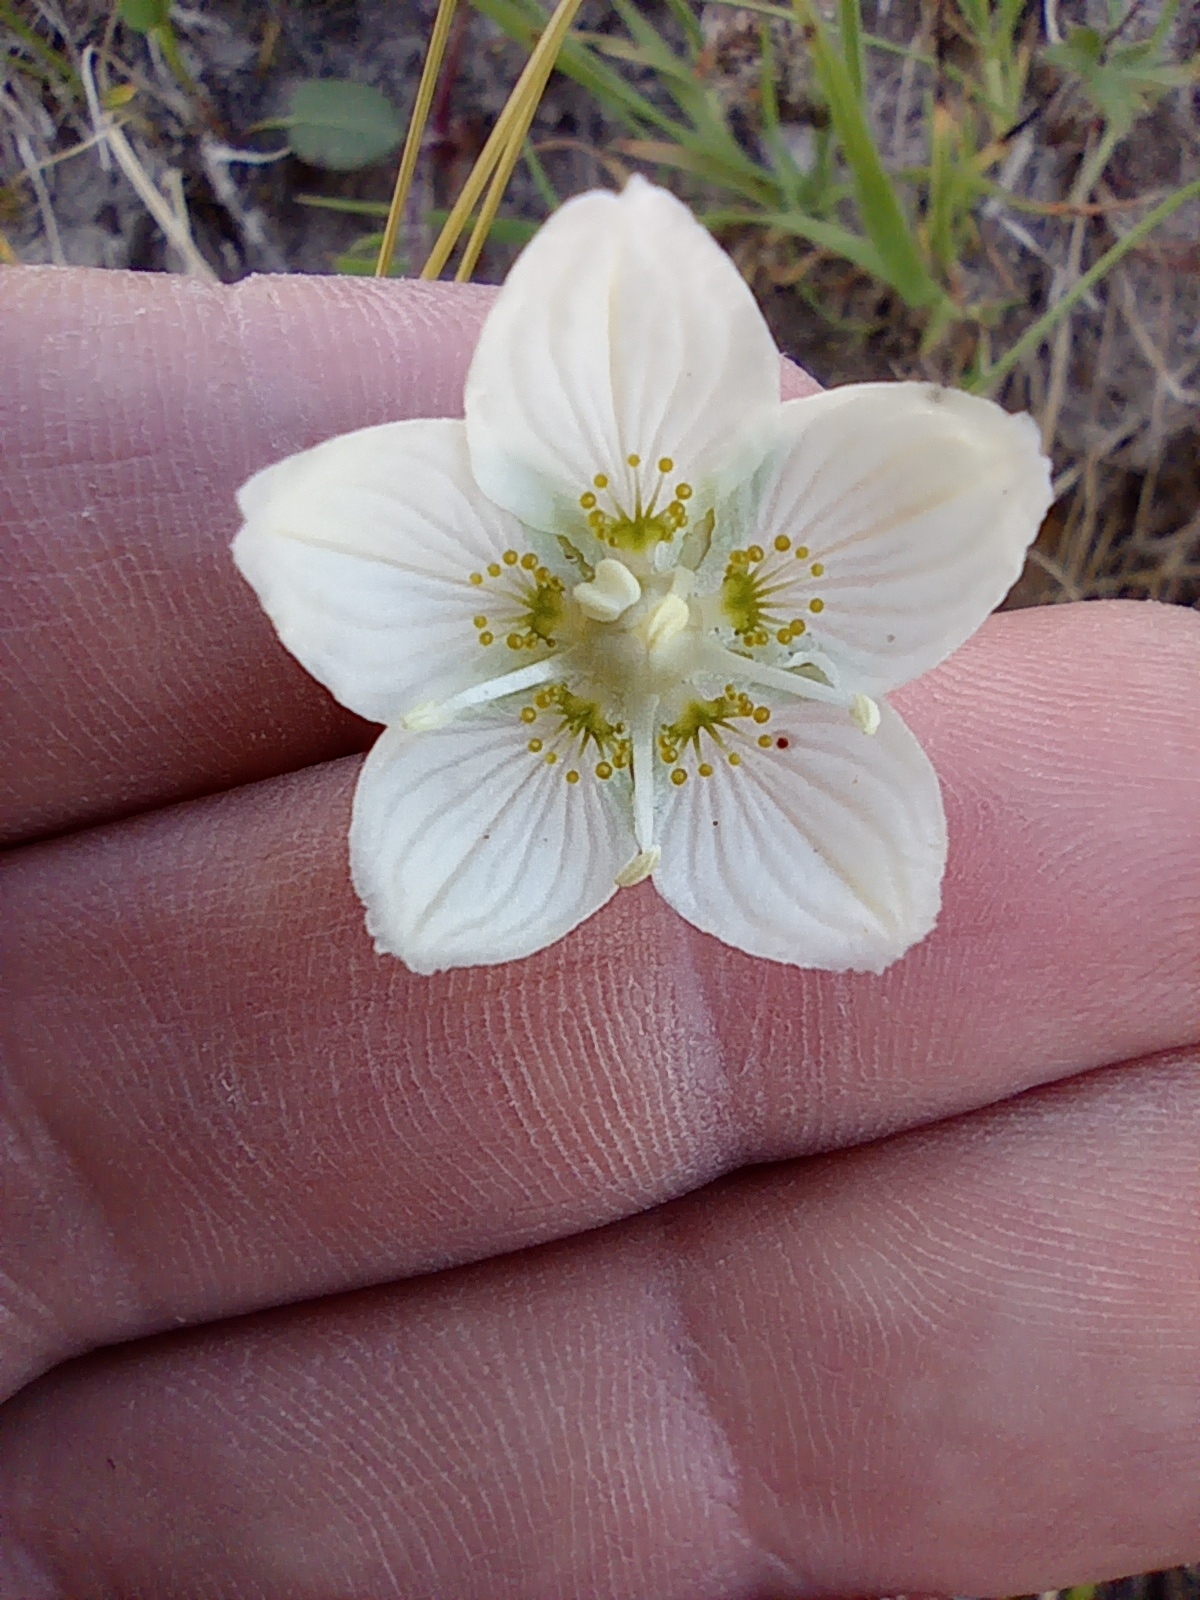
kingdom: Plantae
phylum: Tracheophyta
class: Magnoliopsida
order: Celastrales
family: Parnassiaceae
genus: Parnassia
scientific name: Parnassia palustris
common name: Grass-of-parnassus
